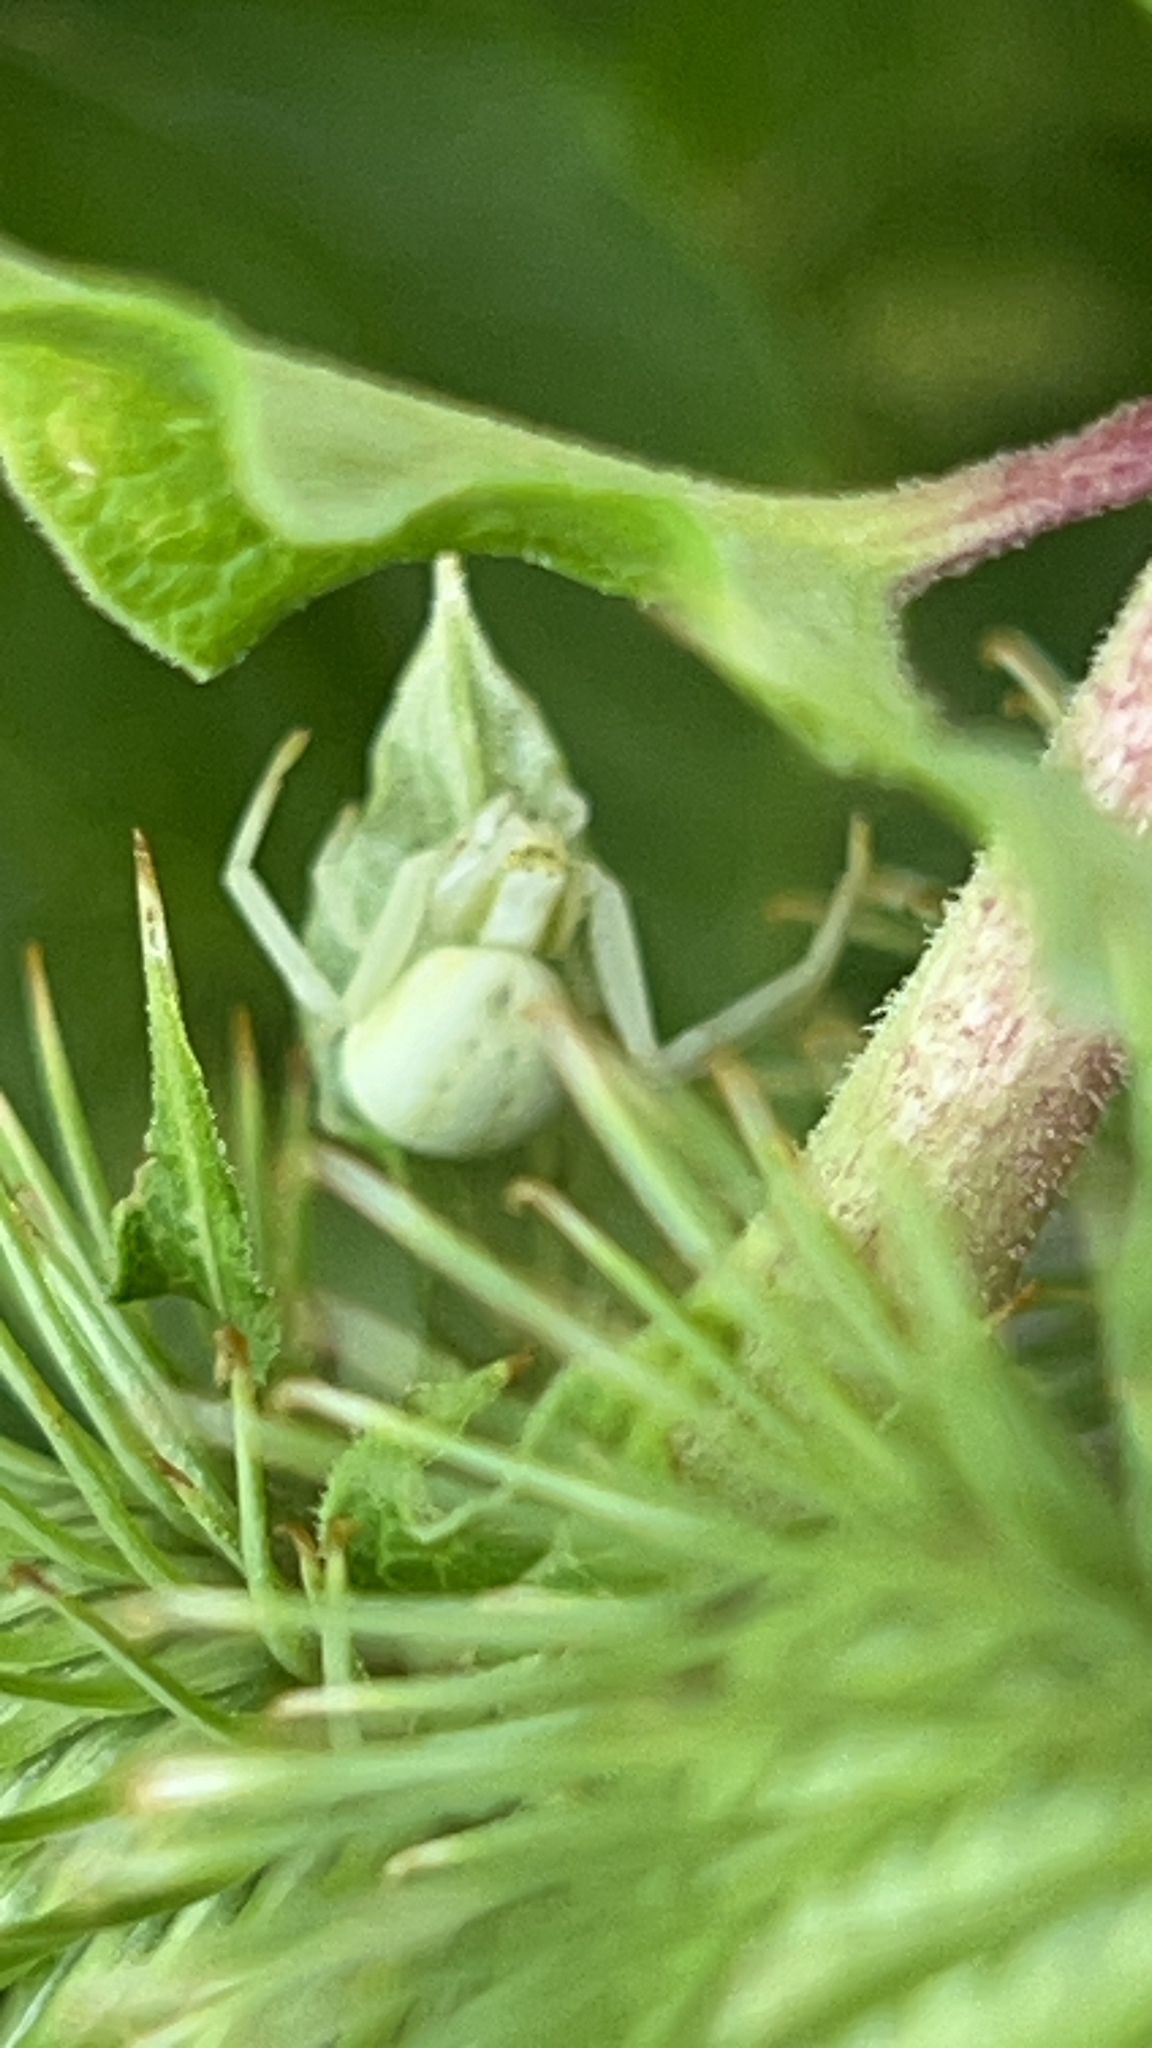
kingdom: Animalia
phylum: Arthropoda
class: Arachnida
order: Araneae
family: Thomisidae
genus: Misumena
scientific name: Misumena vatia
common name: Goldenrod crab spider
